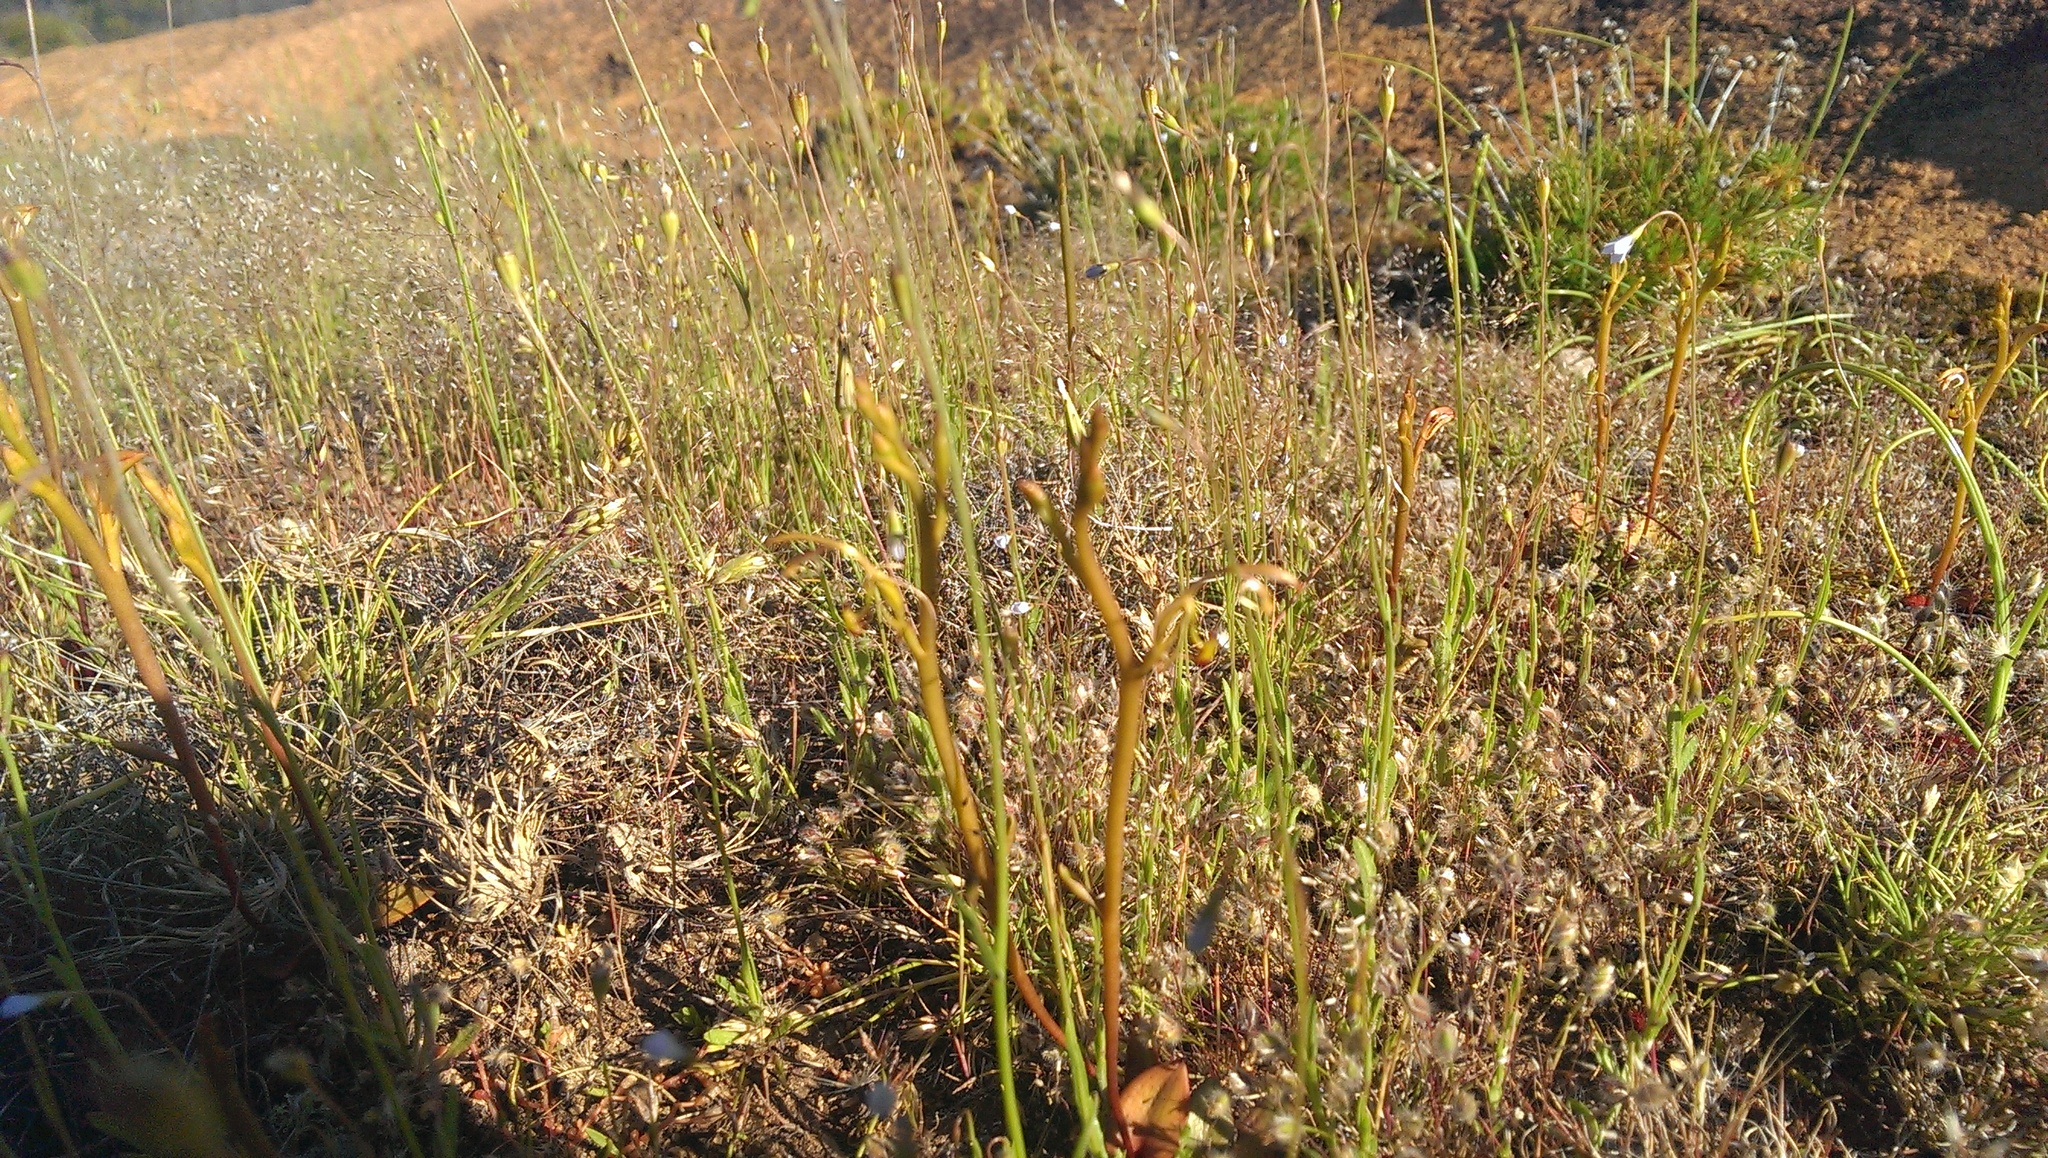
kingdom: Plantae
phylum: Tracheophyta
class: Liliopsida
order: Asparagales
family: Orchidaceae
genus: Spiculaea
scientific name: Spiculaea ciliata
